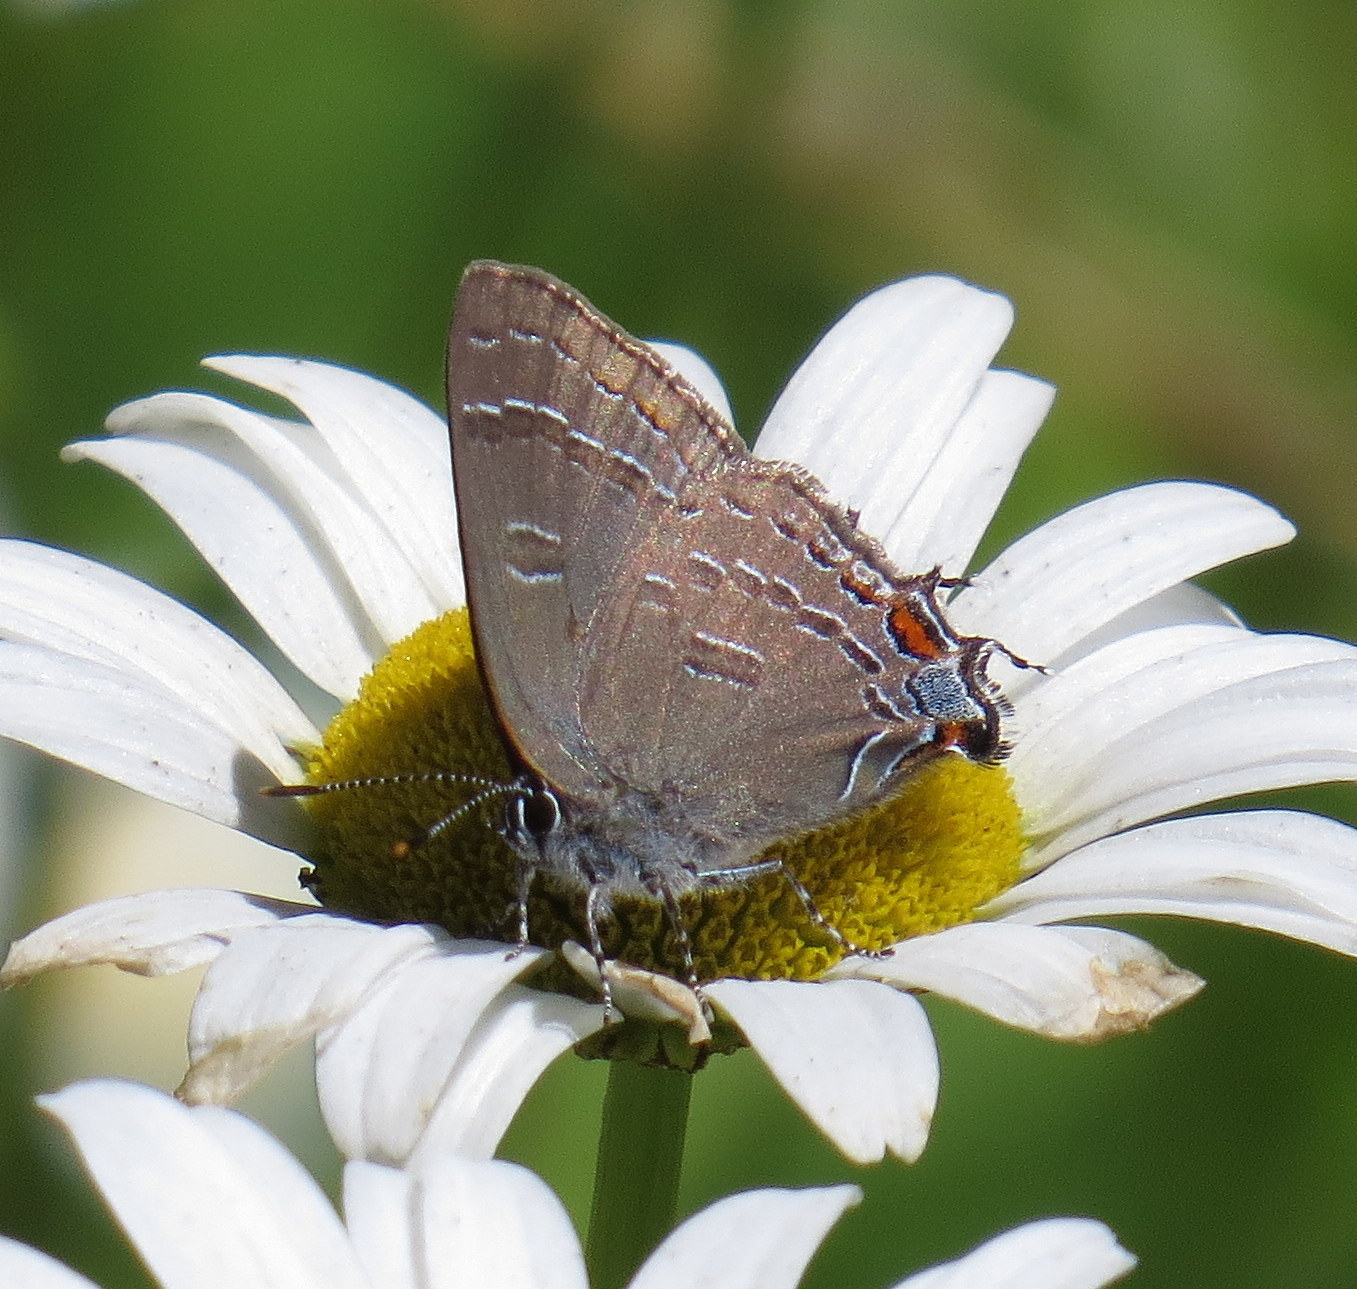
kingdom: Animalia
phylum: Arthropoda
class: Insecta
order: Lepidoptera
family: Lycaenidae
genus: Satyrium
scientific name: Satyrium calanus
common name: Banded hairstreak
